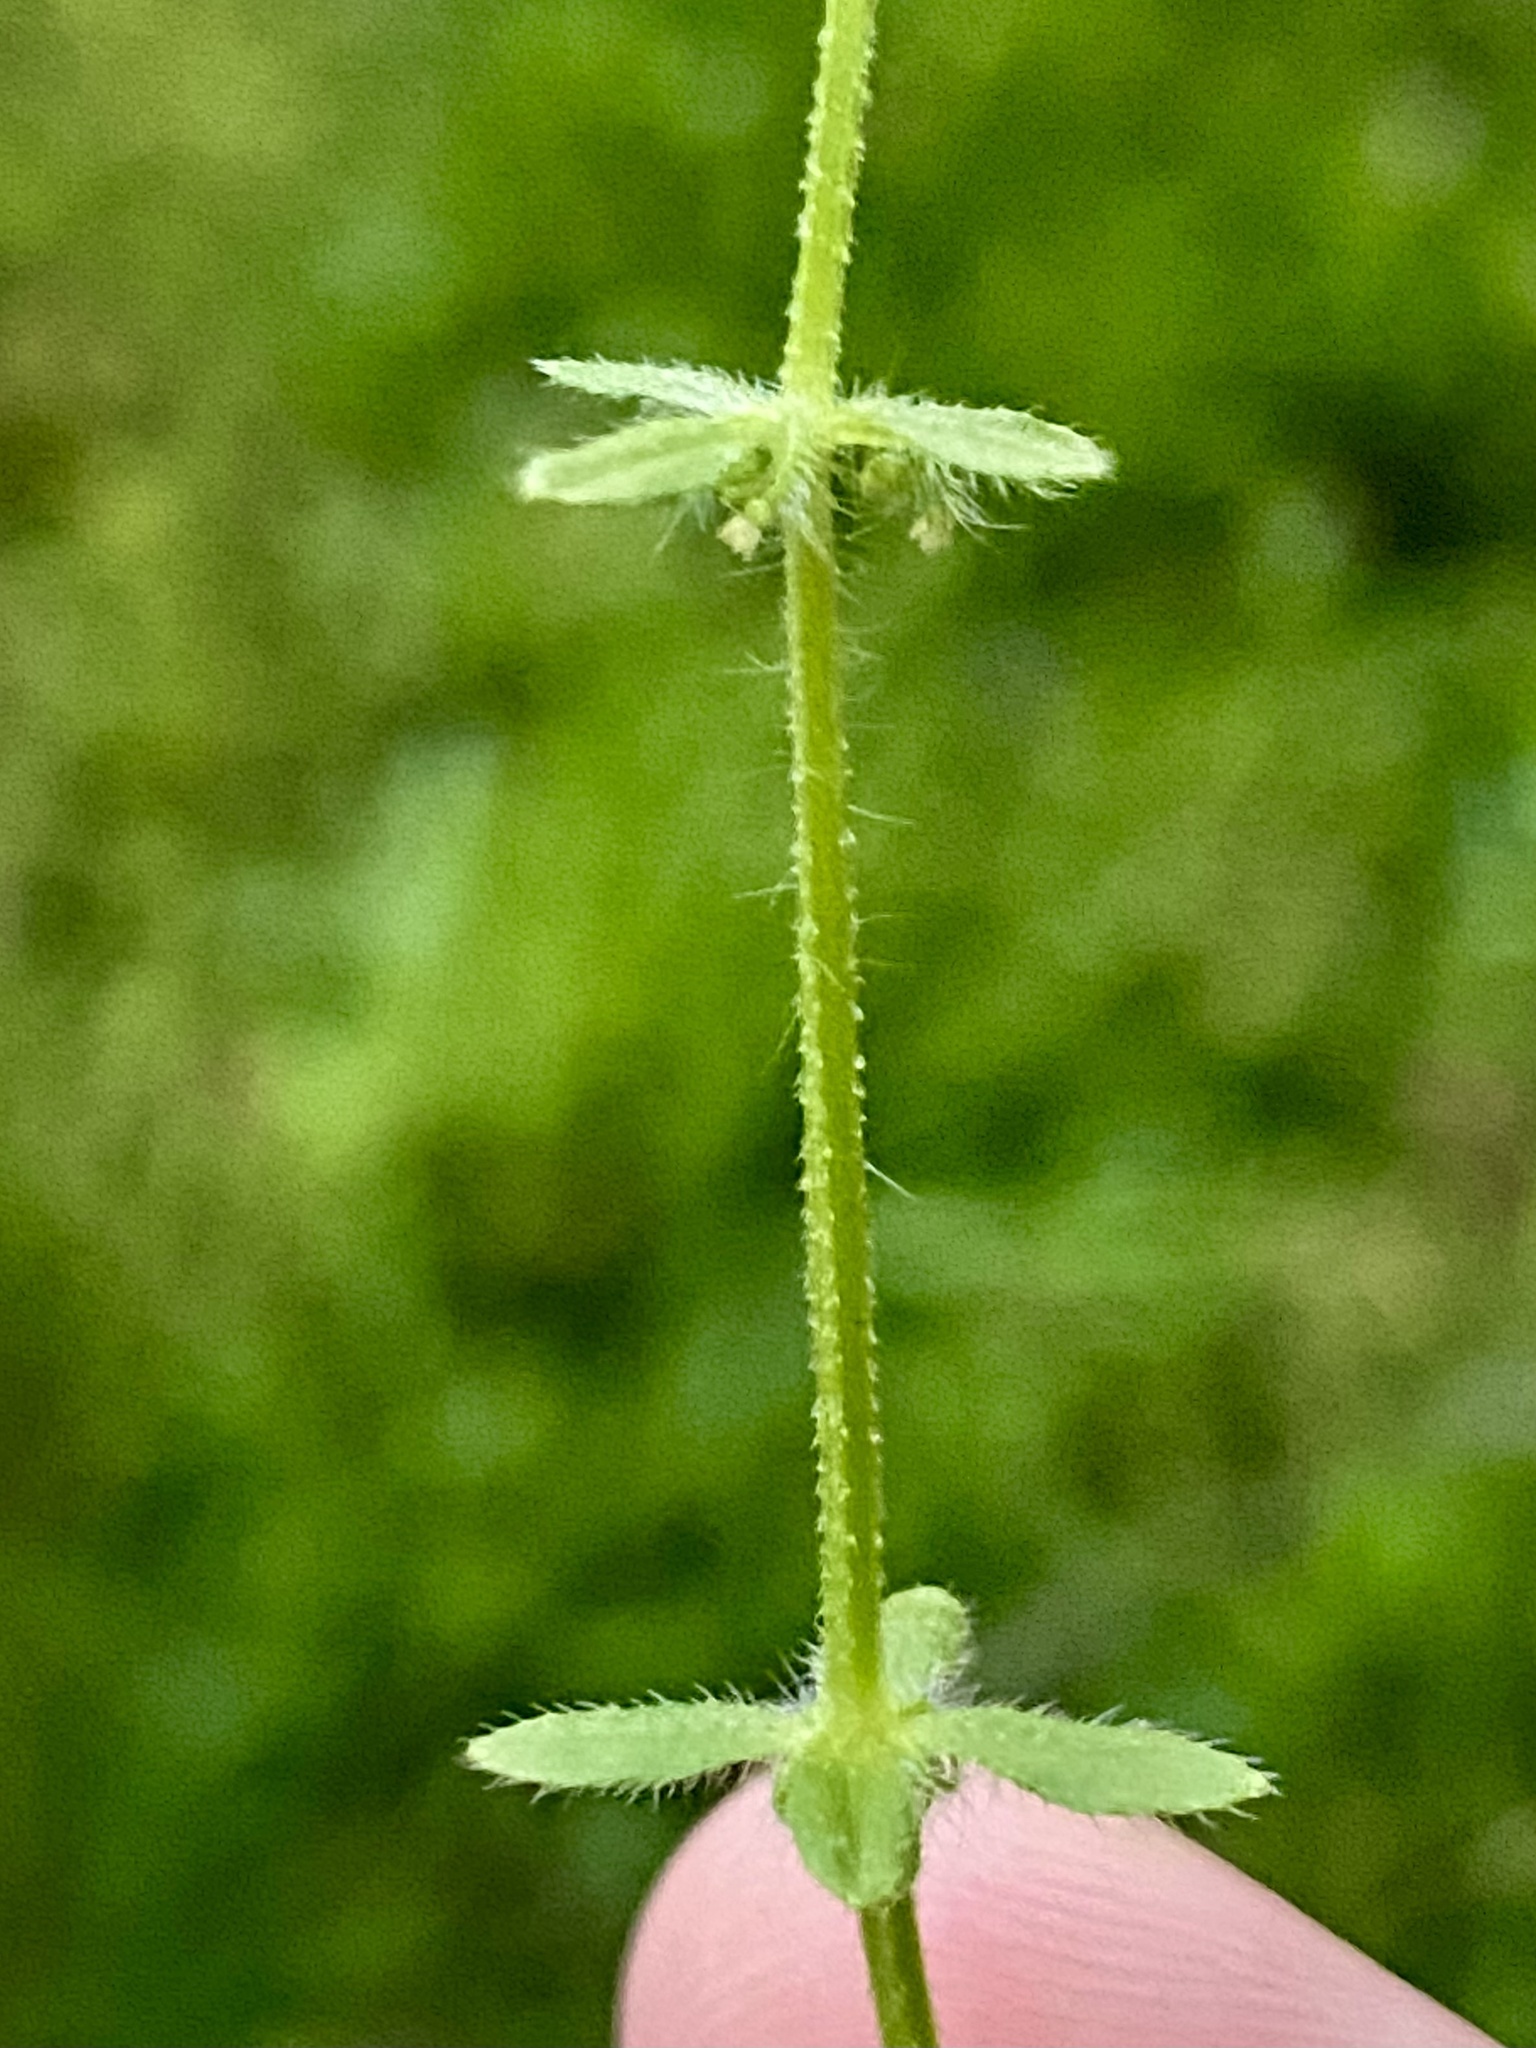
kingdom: Plantae
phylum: Tracheophyta
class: Magnoliopsida
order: Gentianales
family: Rubiaceae
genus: Cruciata
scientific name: Cruciata pedemontana
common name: Piedmont bedstraw
